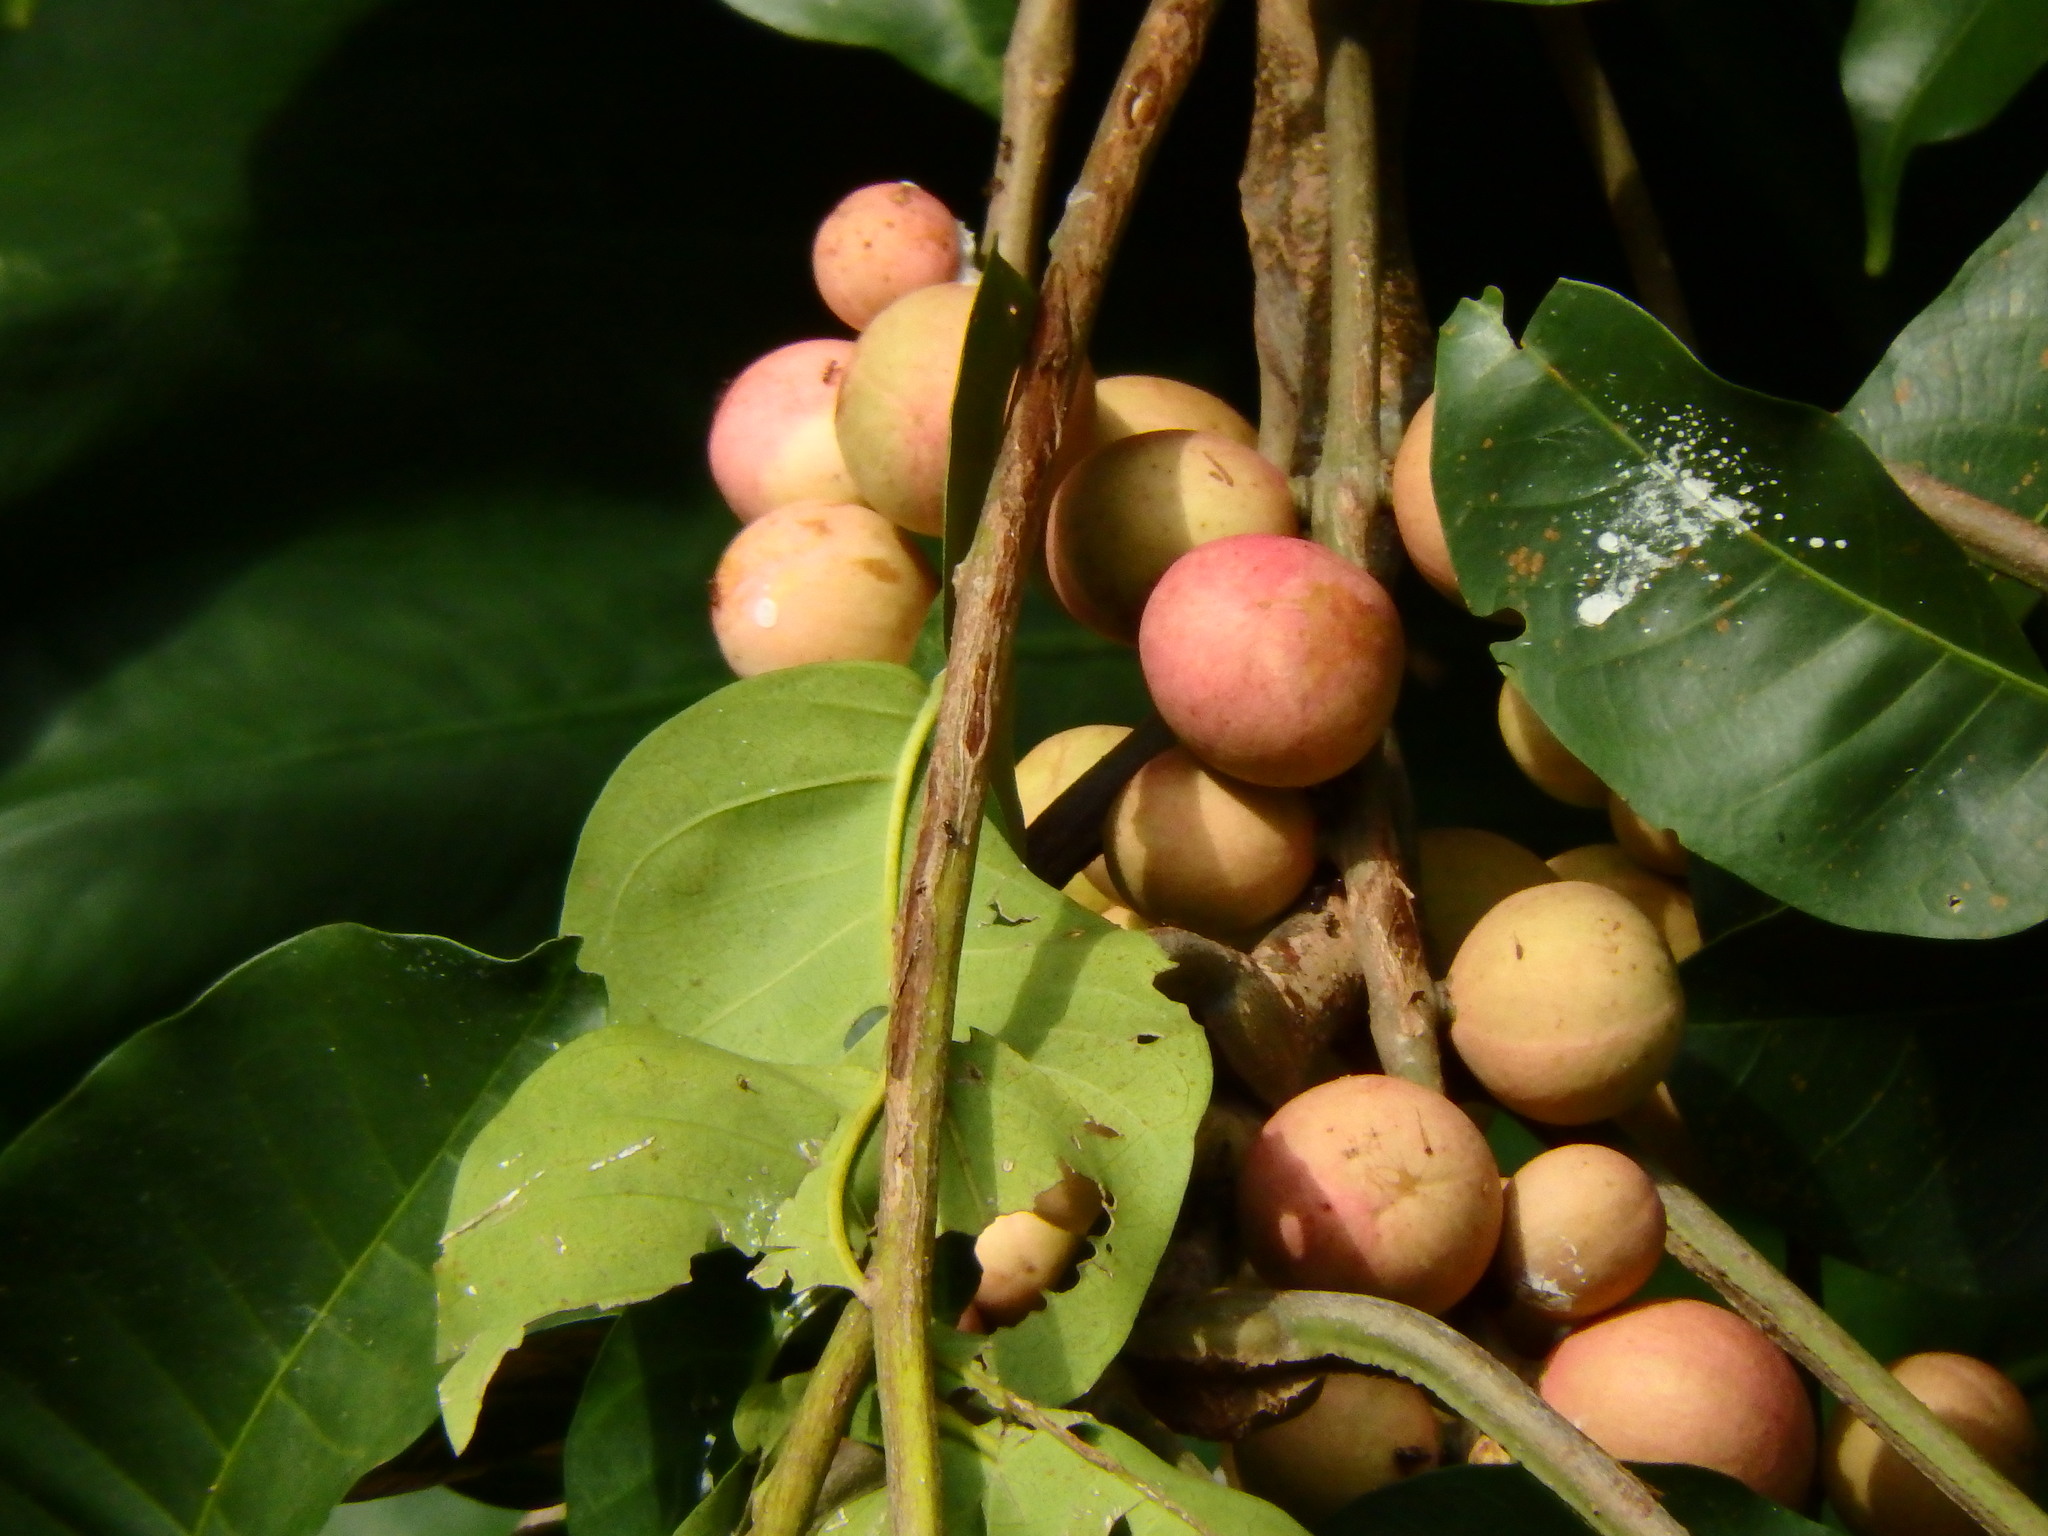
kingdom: Plantae
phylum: Tracheophyta
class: Magnoliopsida
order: Sapindales
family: Meliaceae
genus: Aphanamixis
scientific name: Aphanamixis polystachya
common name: Pithraj tree
